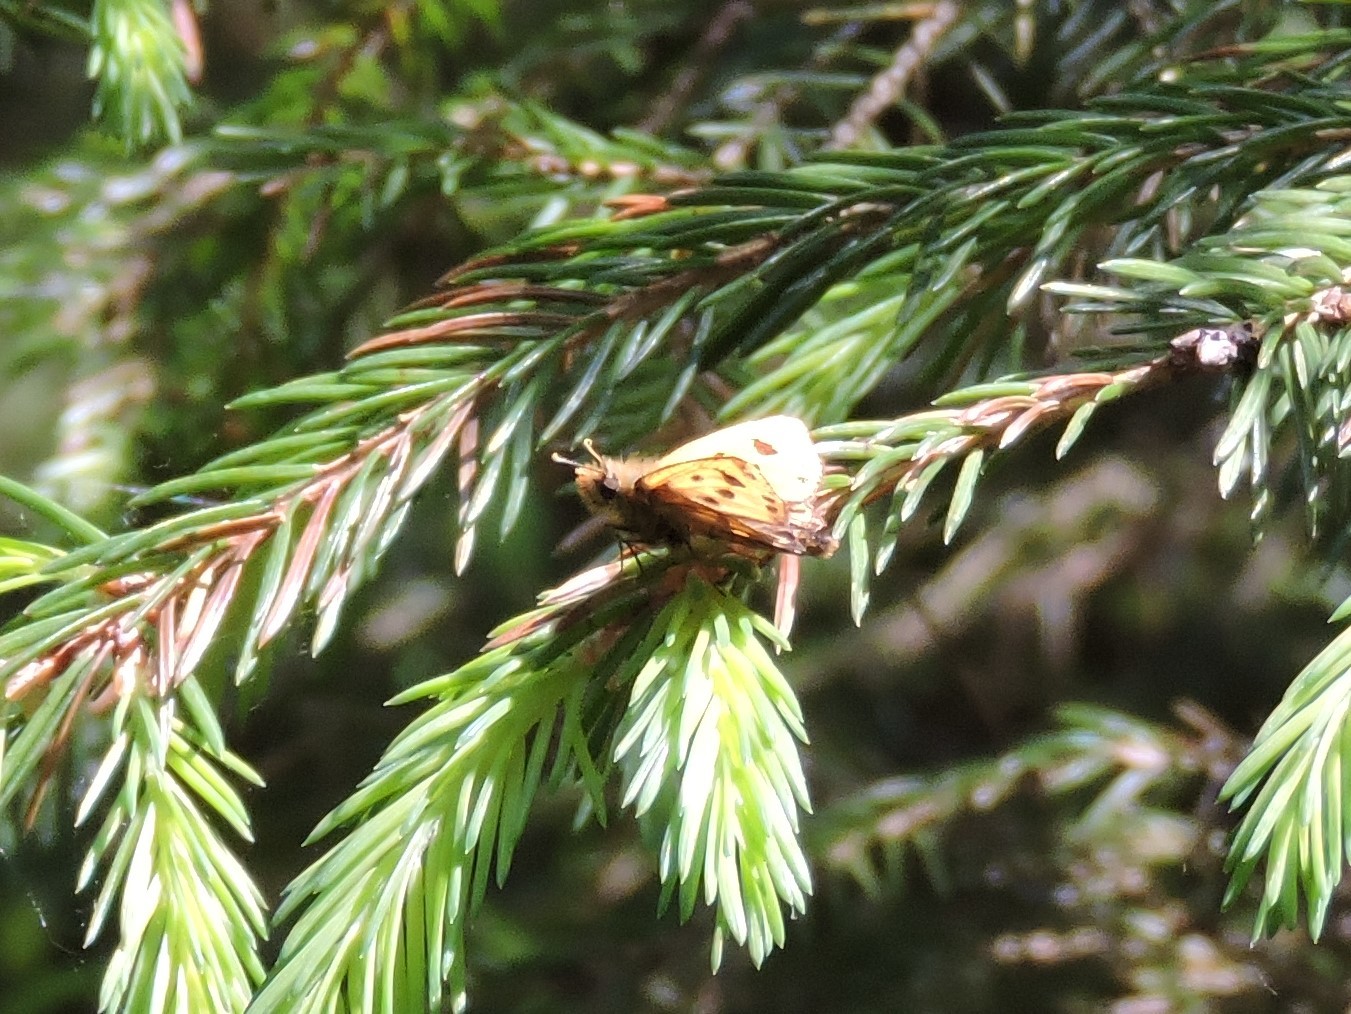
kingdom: Animalia
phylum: Arthropoda
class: Insecta
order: Lepidoptera
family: Hesperiidae
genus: Carterocephalus
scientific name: Carterocephalus silvicola
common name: Northern chequered skipper
